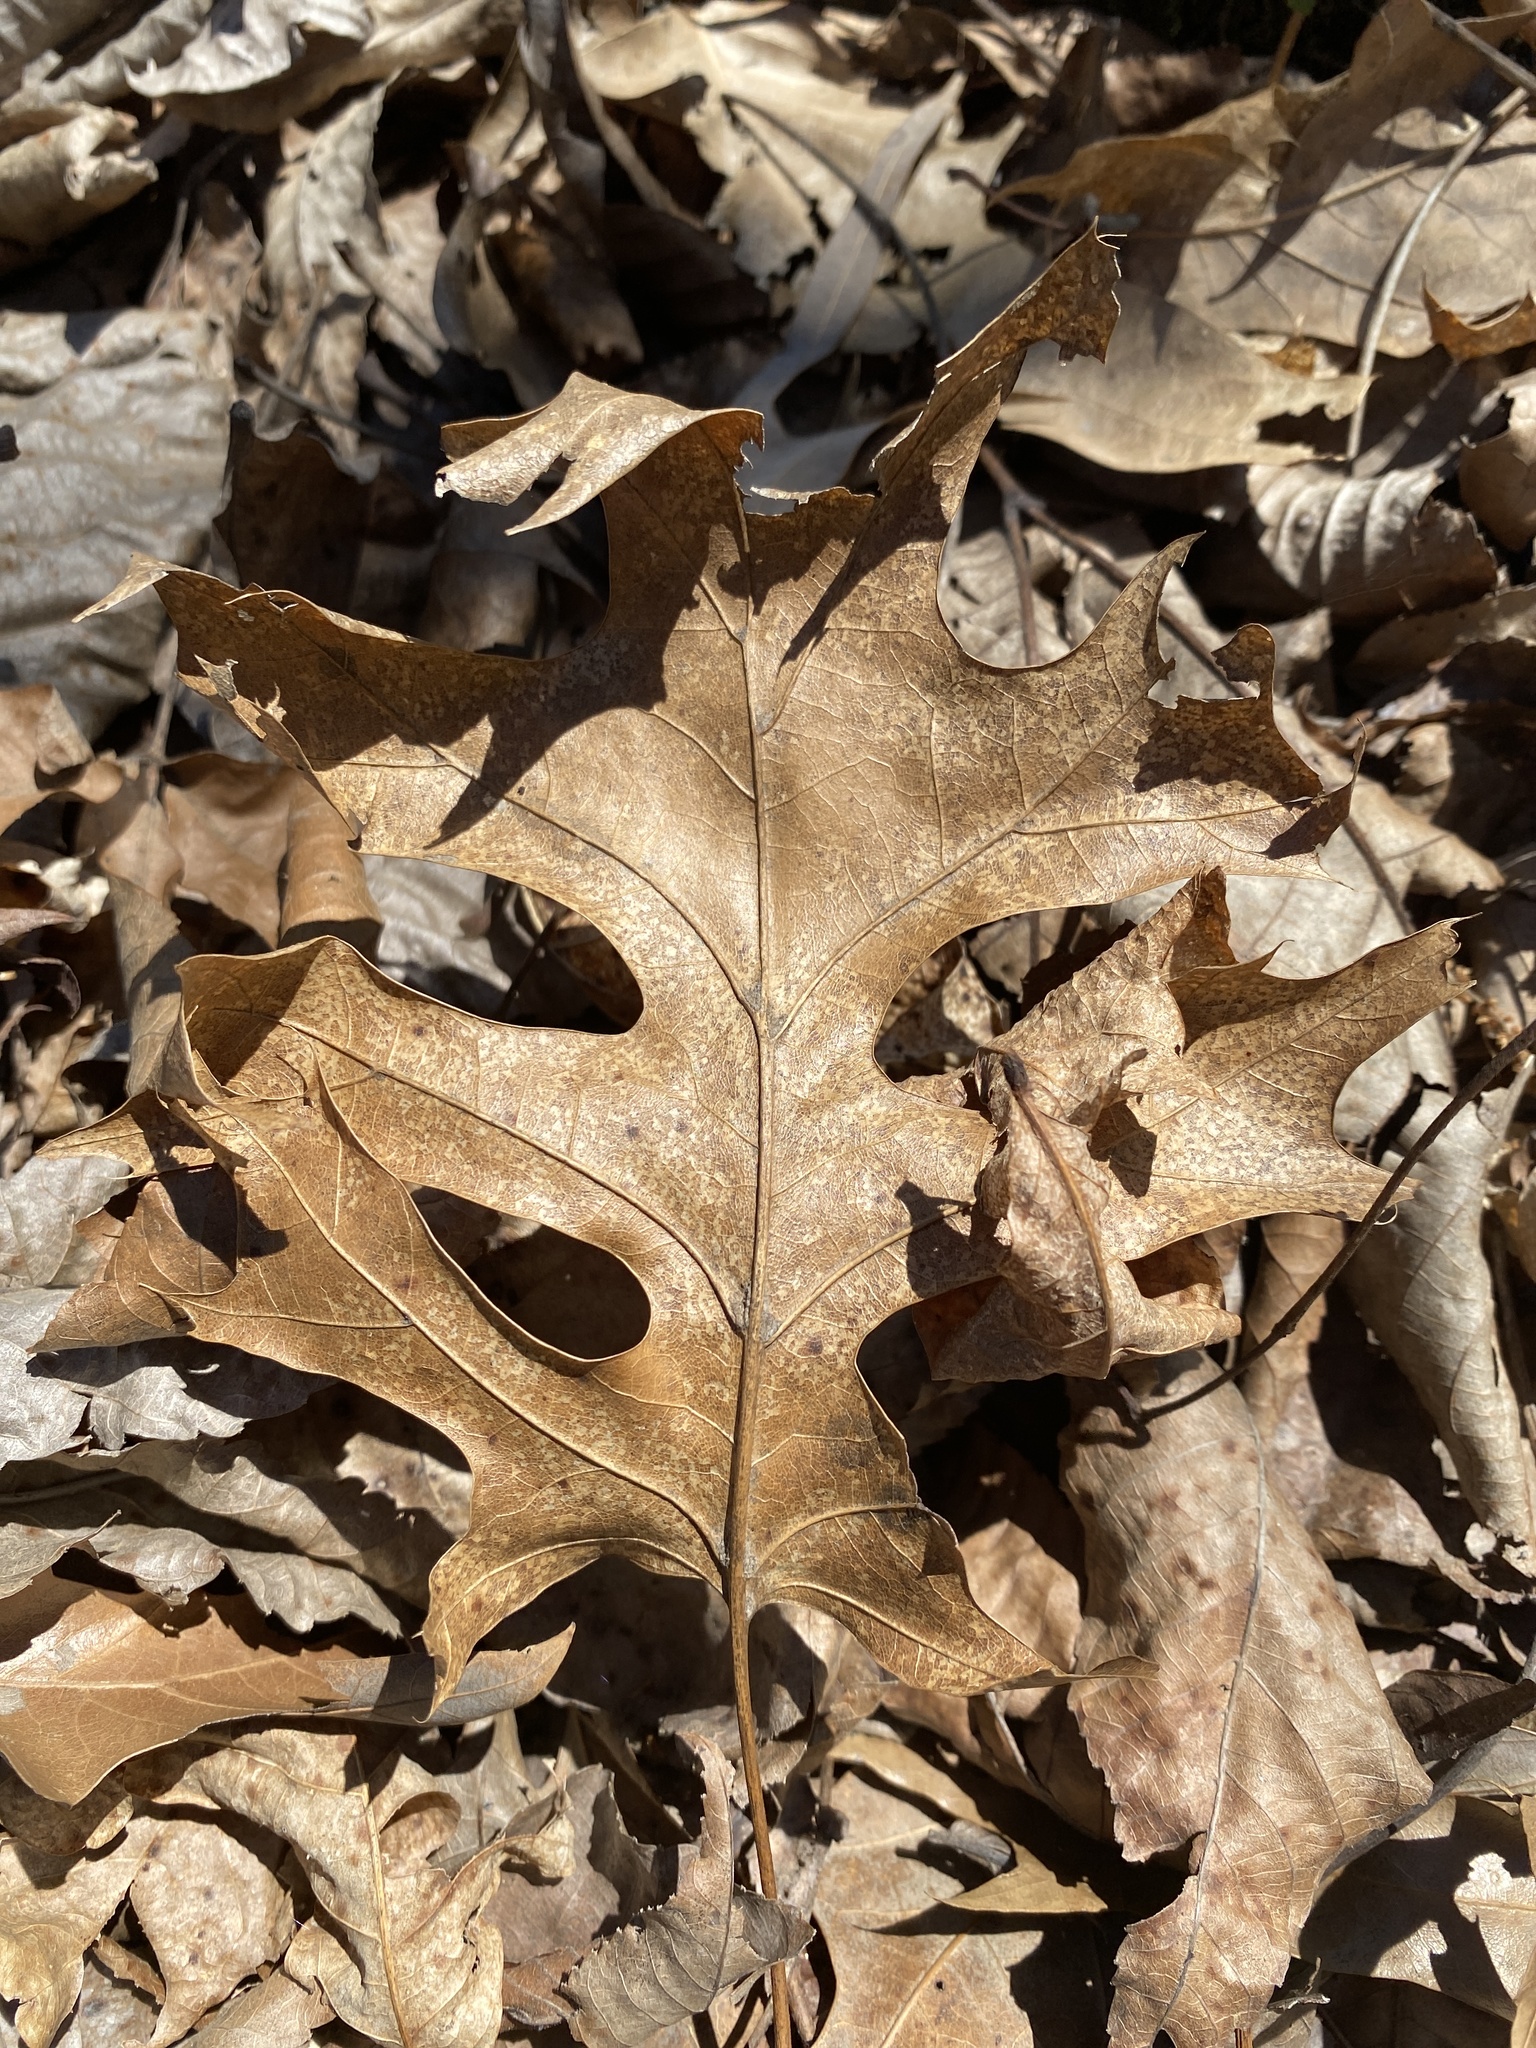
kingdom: Plantae
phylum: Tracheophyta
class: Magnoliopsida
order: Fagales
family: Fagaceae
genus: Quercus
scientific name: Quercus shumardii
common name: Shumard oak
